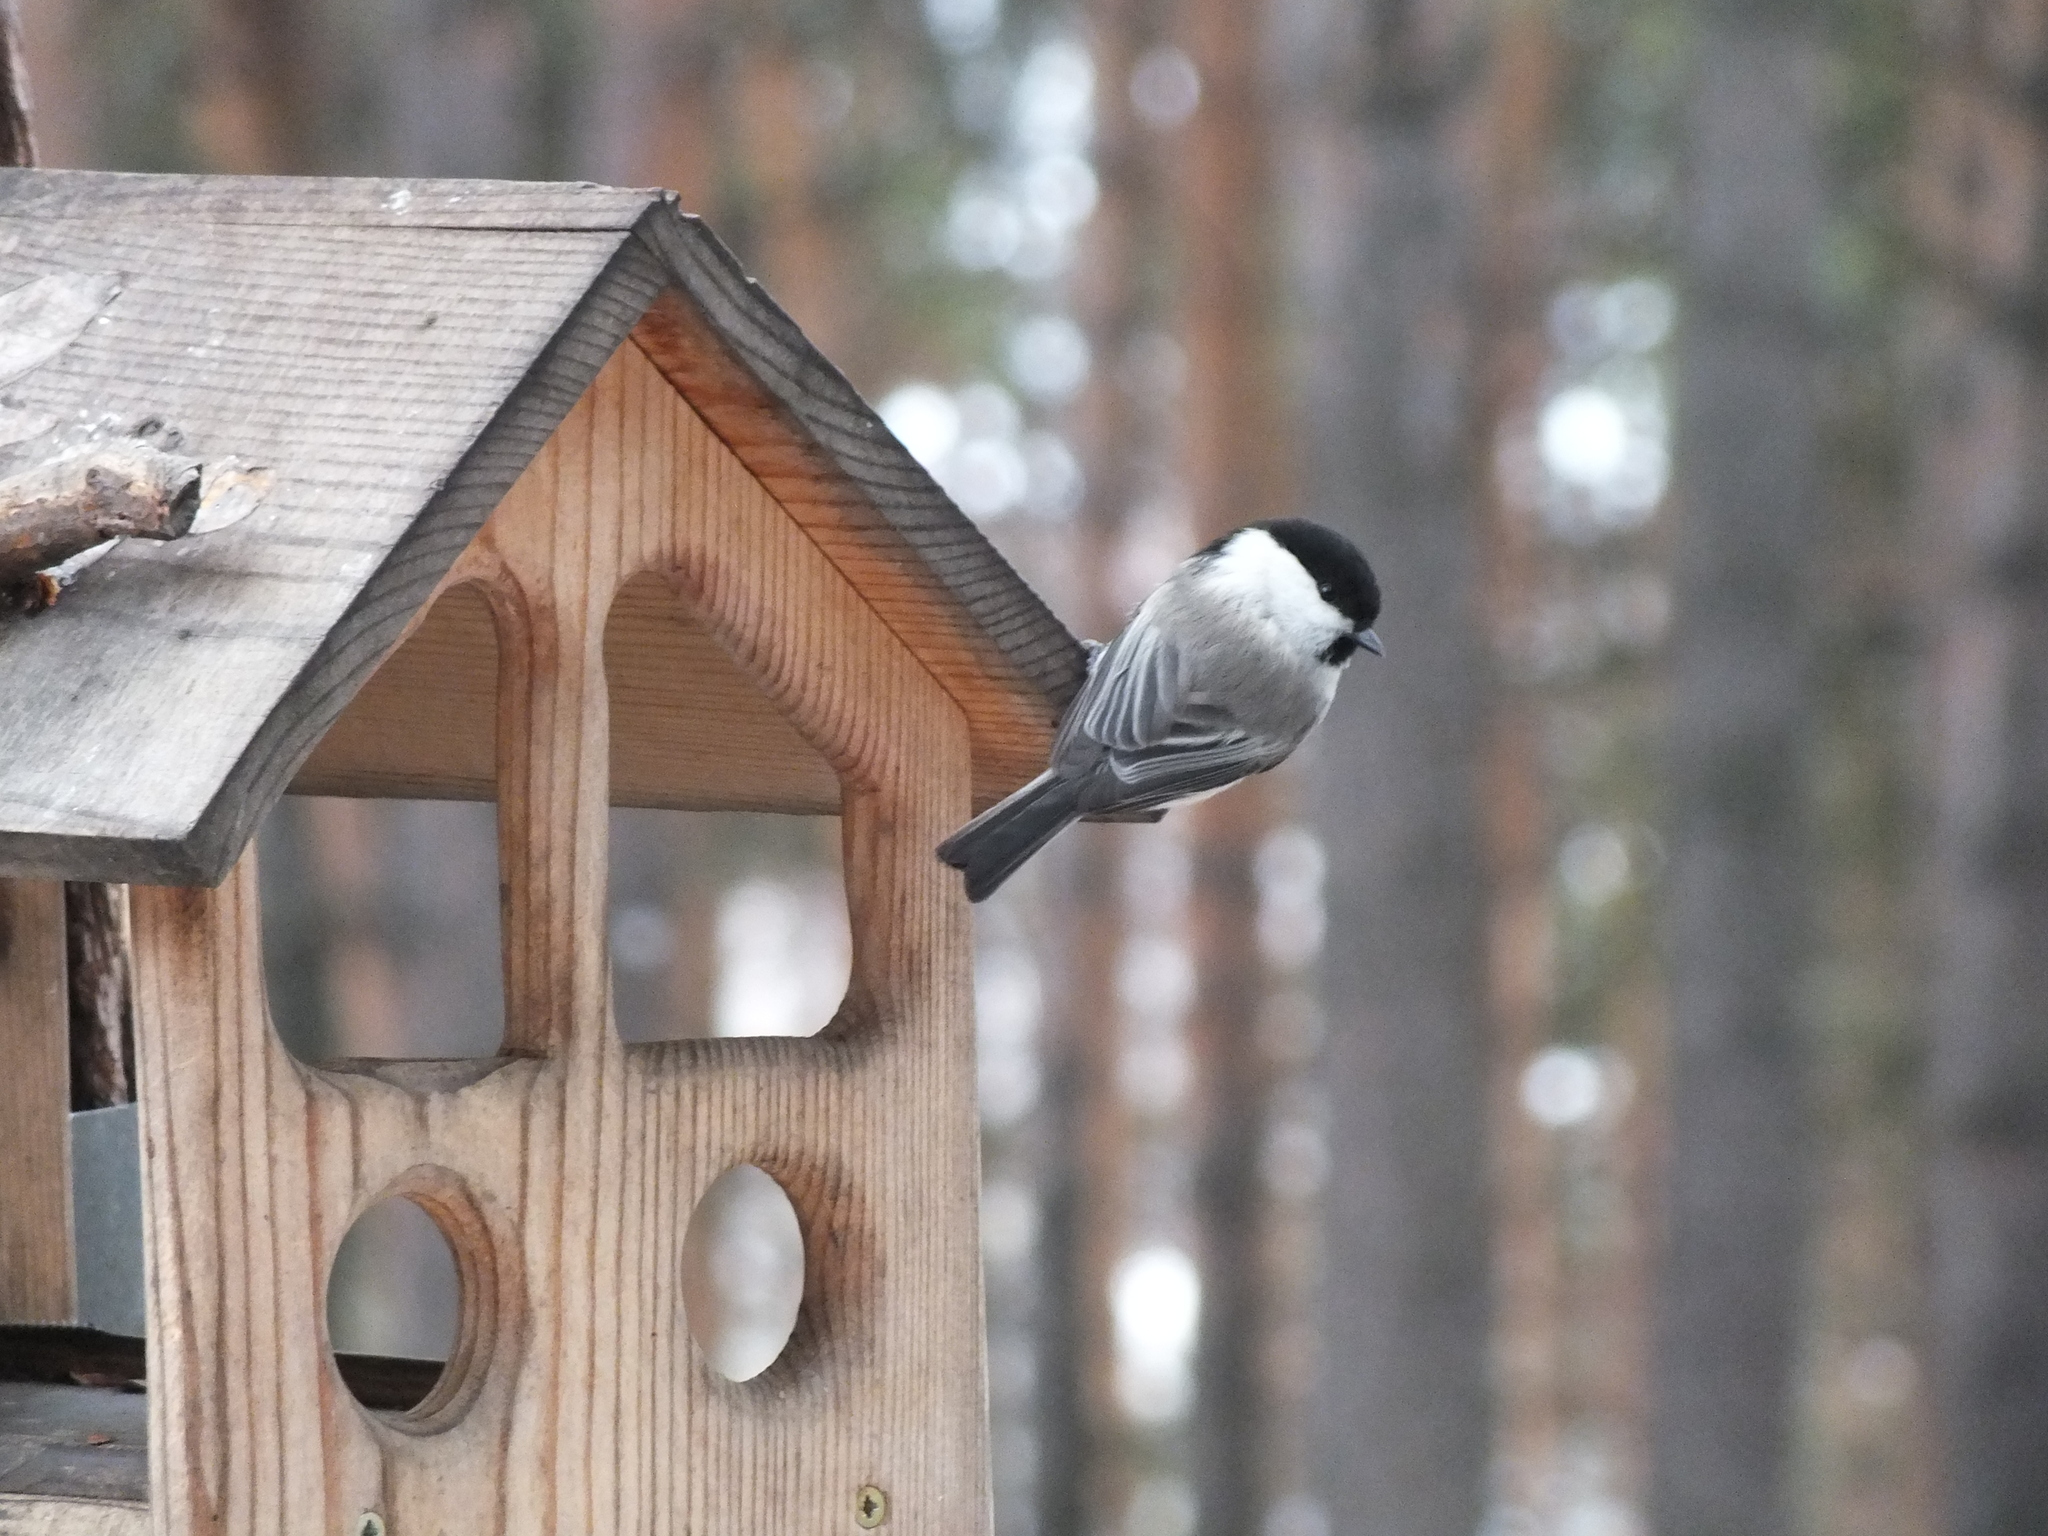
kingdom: Animalia
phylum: Chordata
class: Aves
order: Passeriformes
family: Paridae
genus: Poecile
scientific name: Poecile montanus
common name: Willow tit
